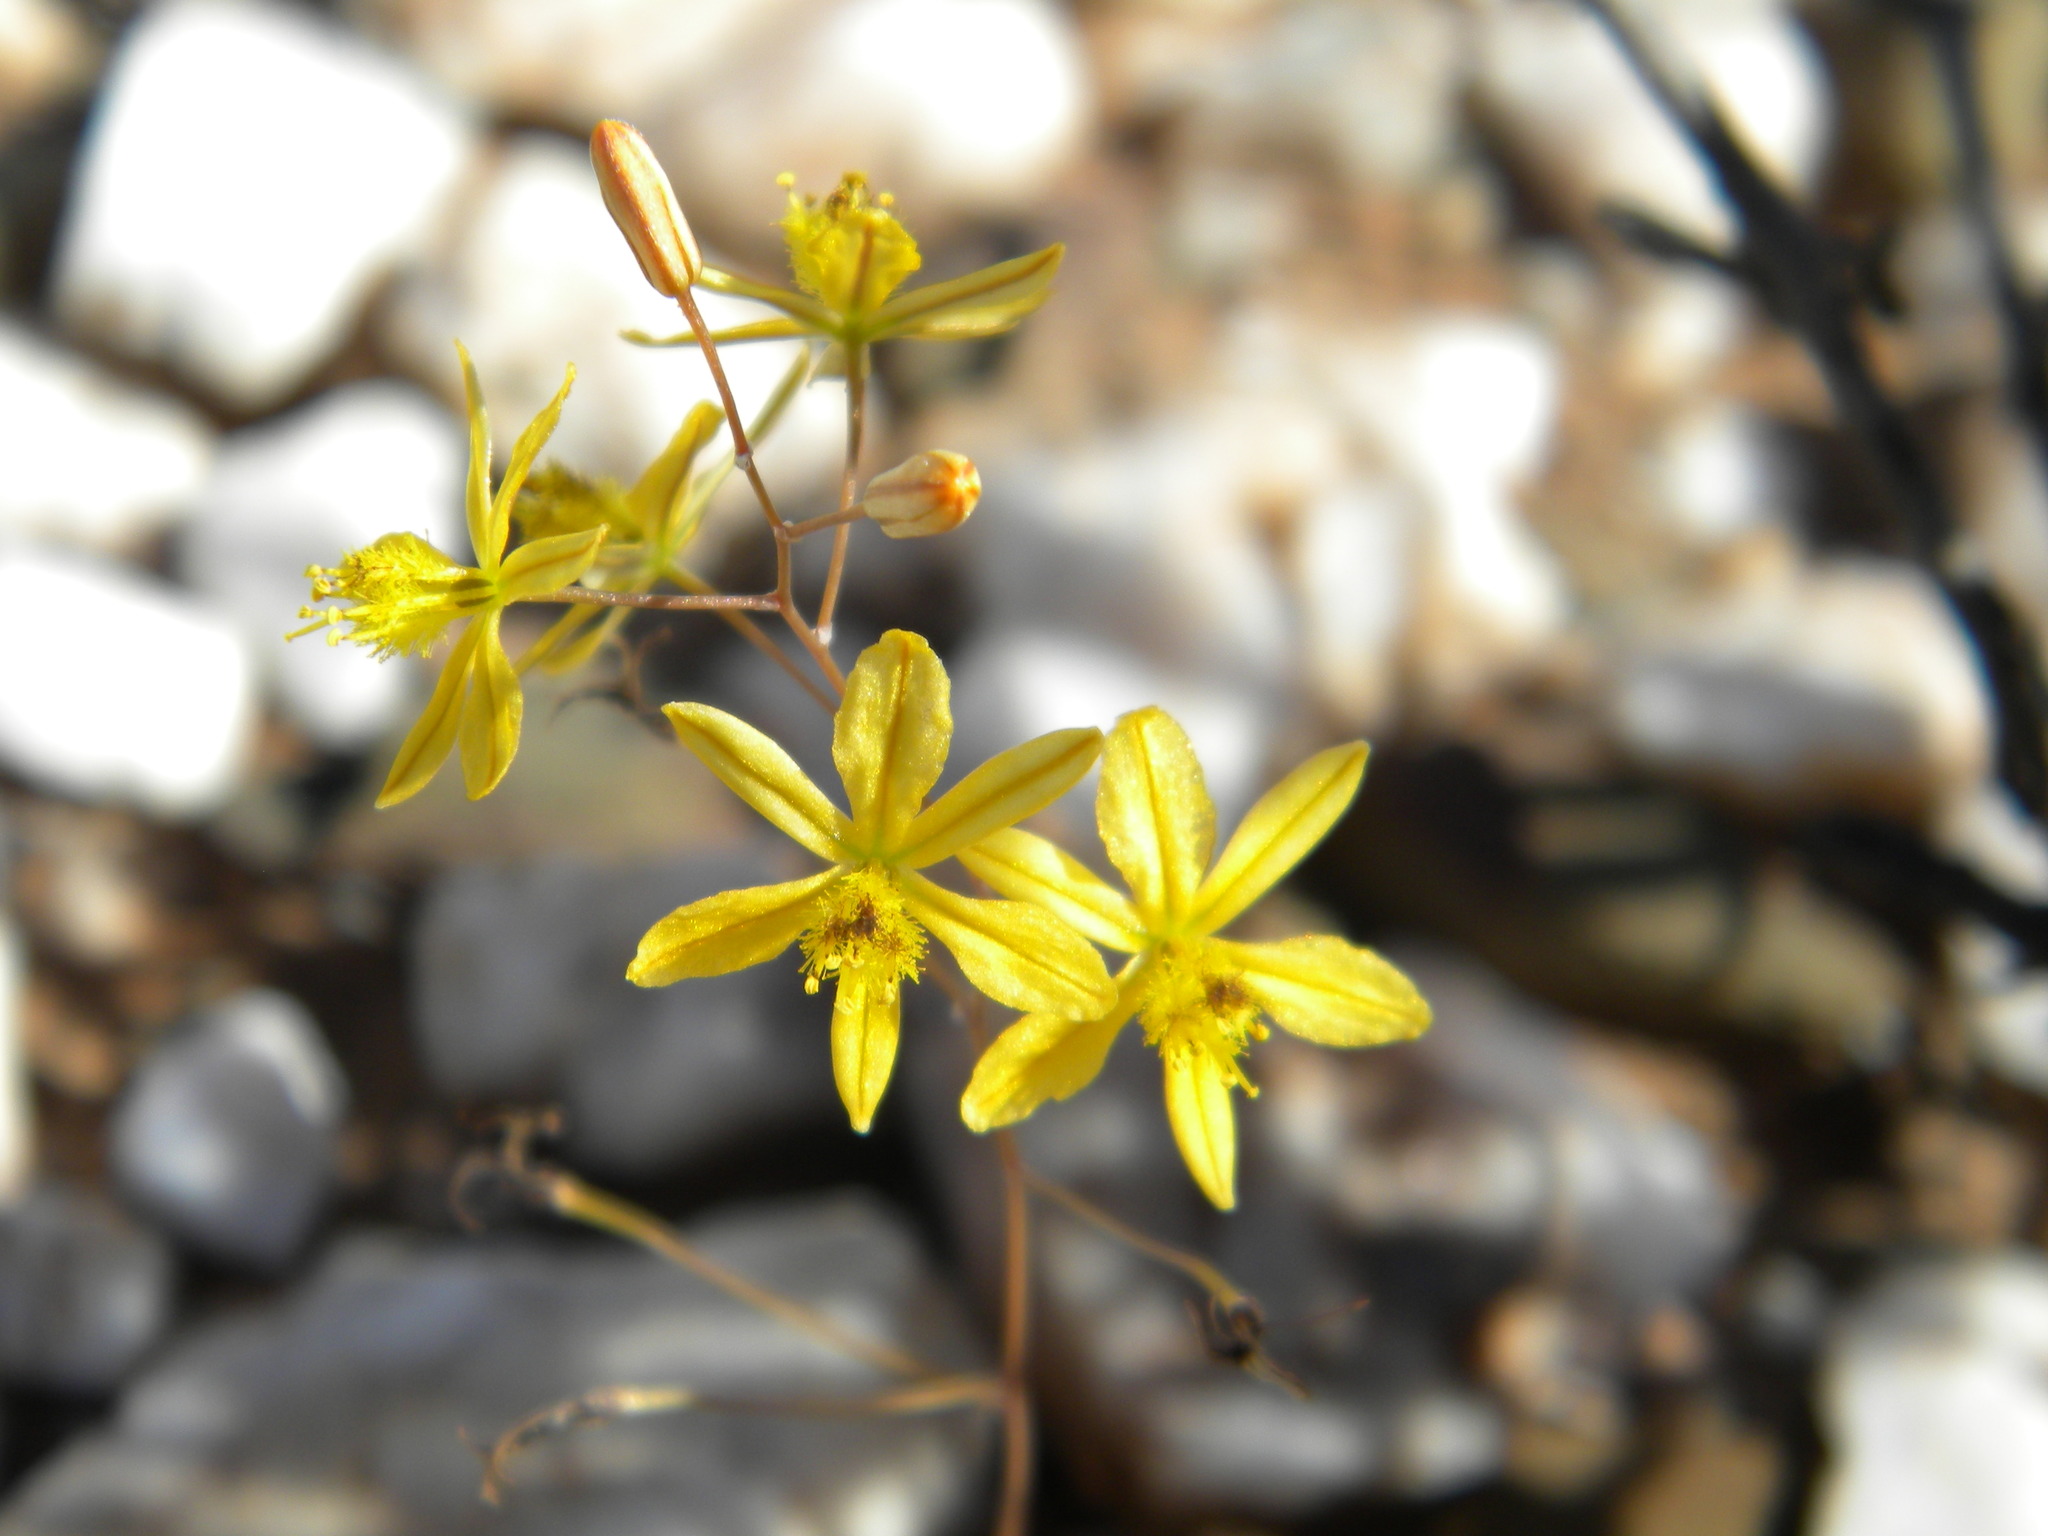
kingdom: Plantae
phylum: Tracheophyta
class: Liliopsida
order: Asparagales
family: Asphodelaceae
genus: Bulbine
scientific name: Bulbine
